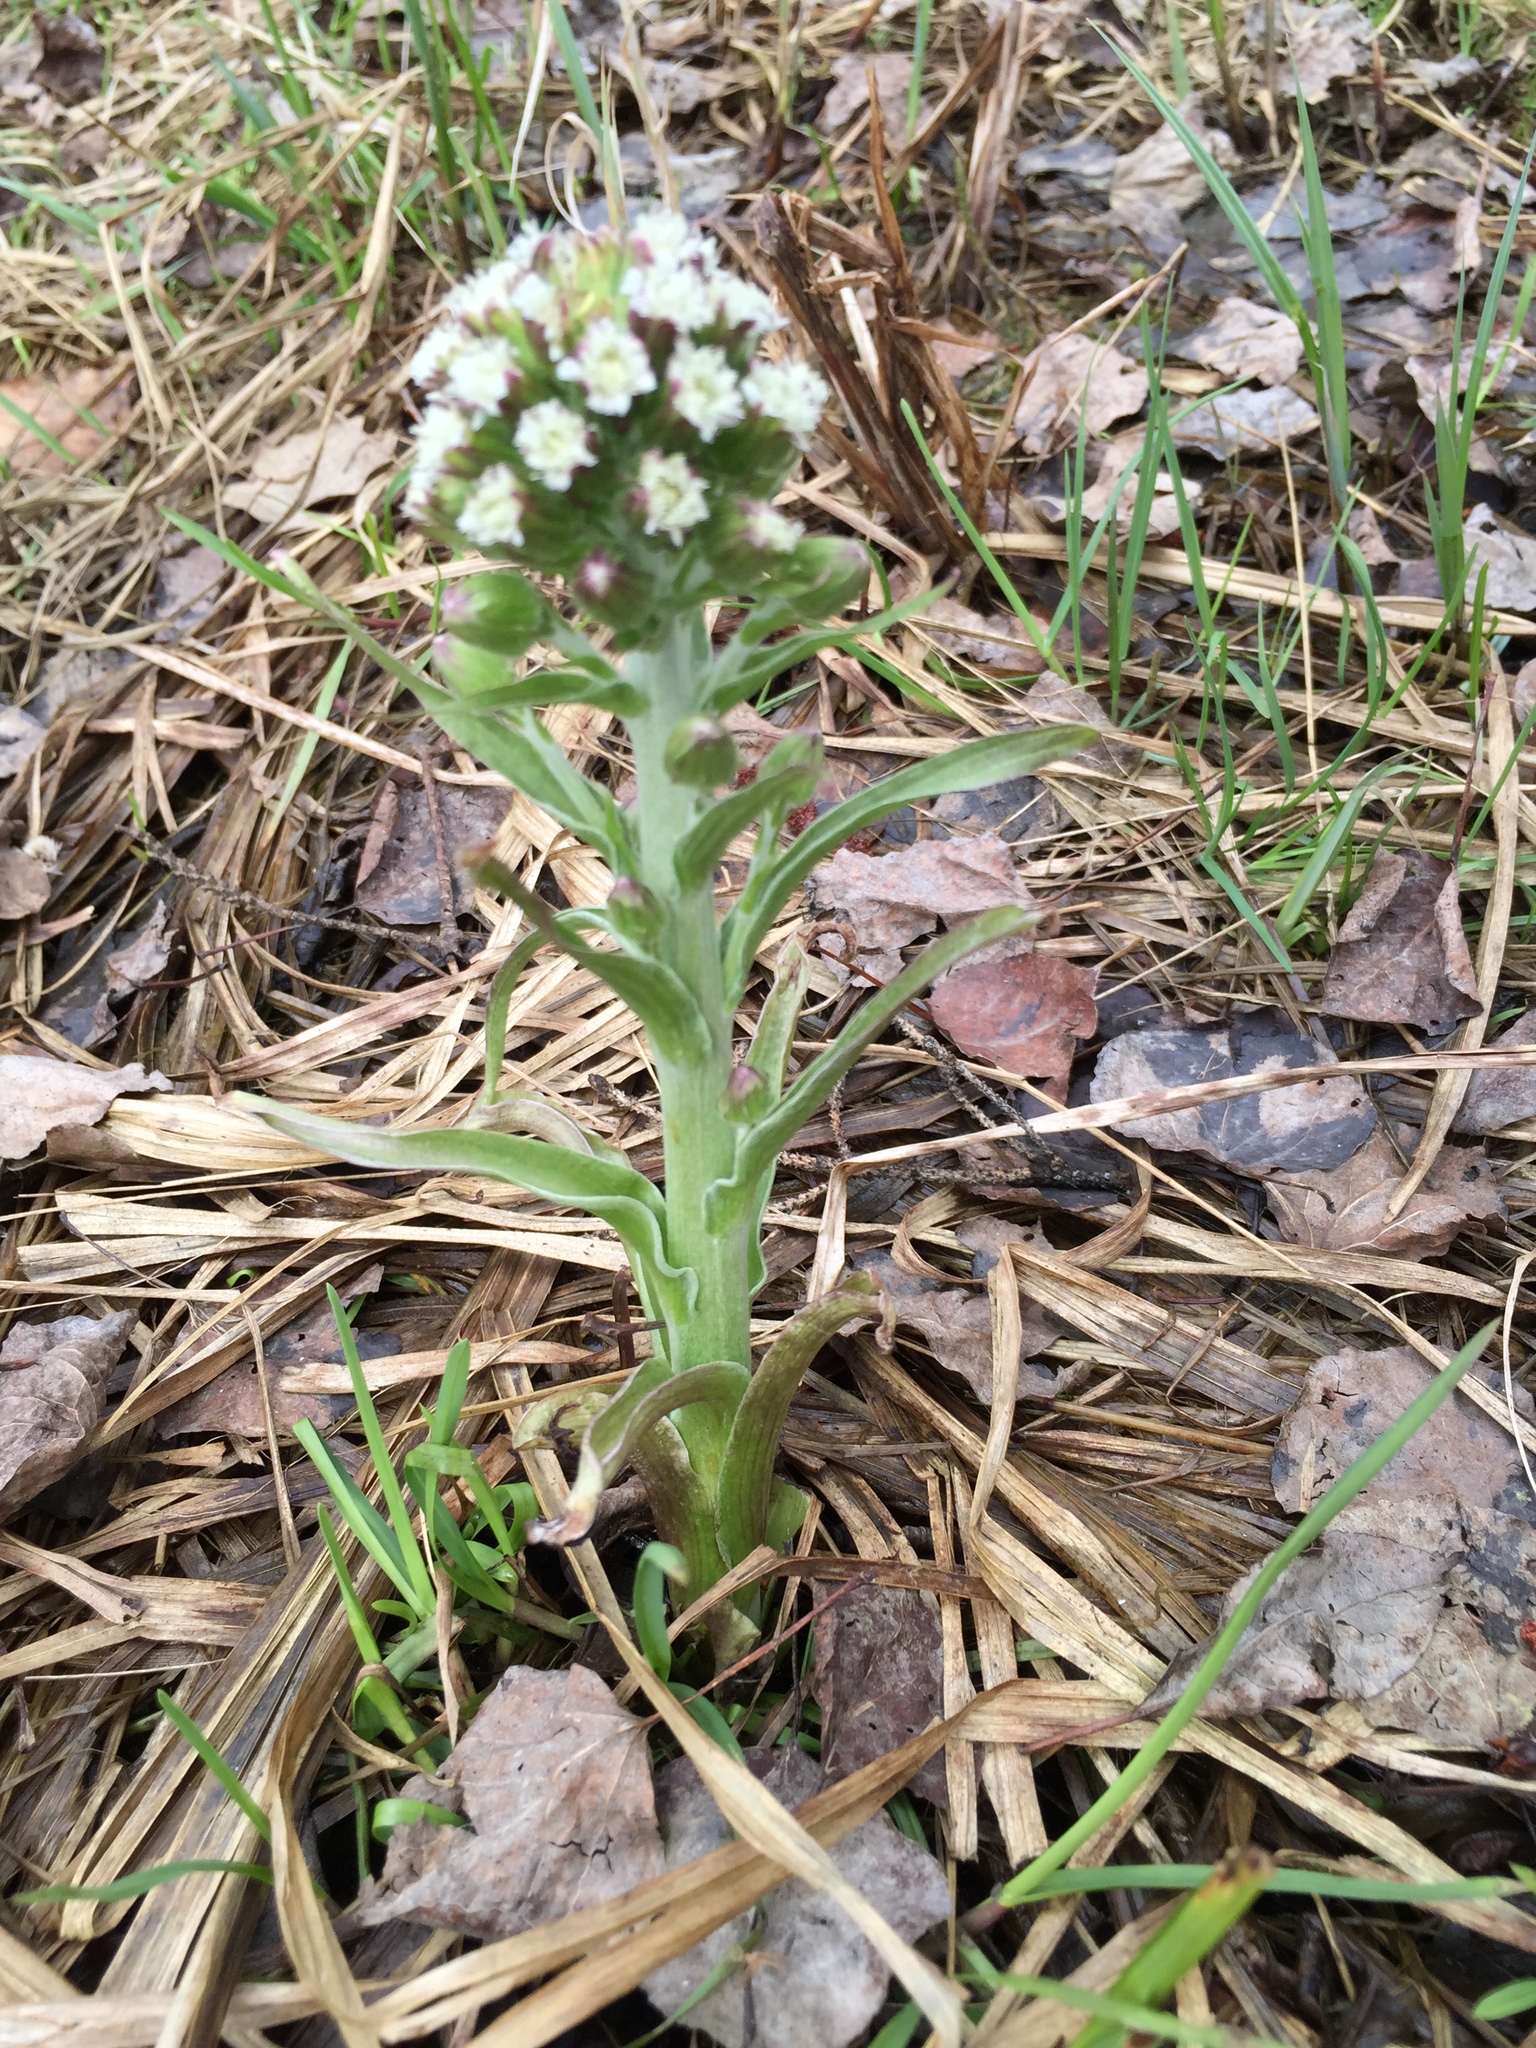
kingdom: Plantae
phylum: Tracheophyta
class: Magnoliopsida
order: Asterales
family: Asteraceae
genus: Petasites
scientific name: Petasites frigidus
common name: Arctic butterbur
